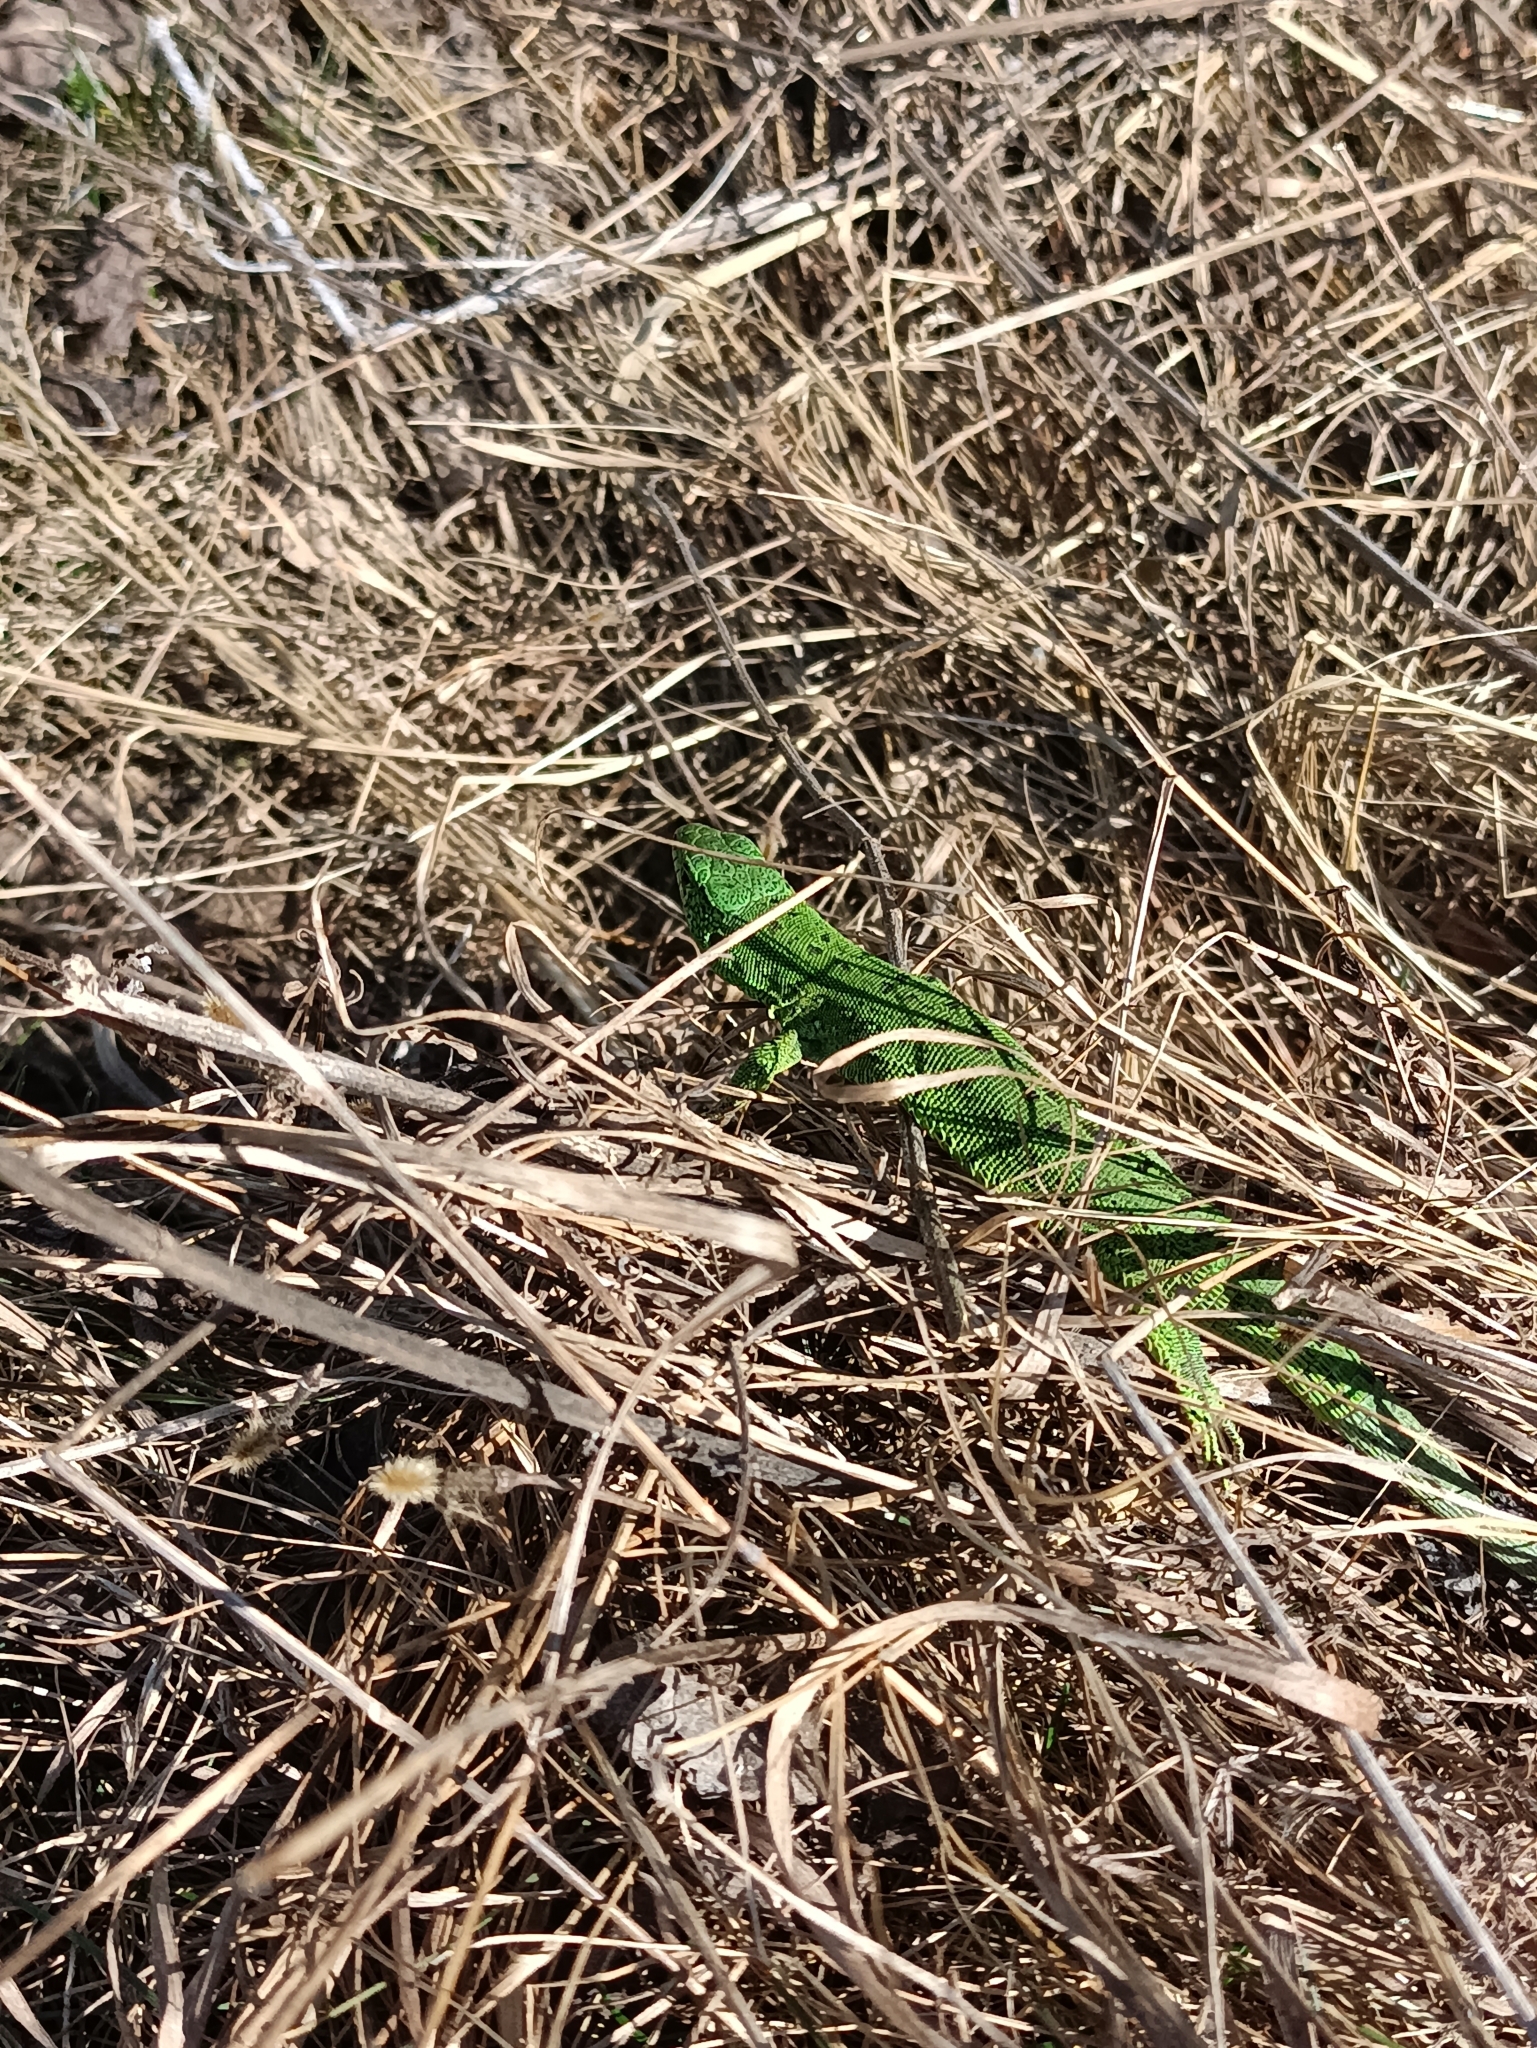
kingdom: Animalia
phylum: Chordata
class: Squamata
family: Lacertidae
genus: Lacerta
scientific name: Lacerta agilis
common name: Sand lizard
